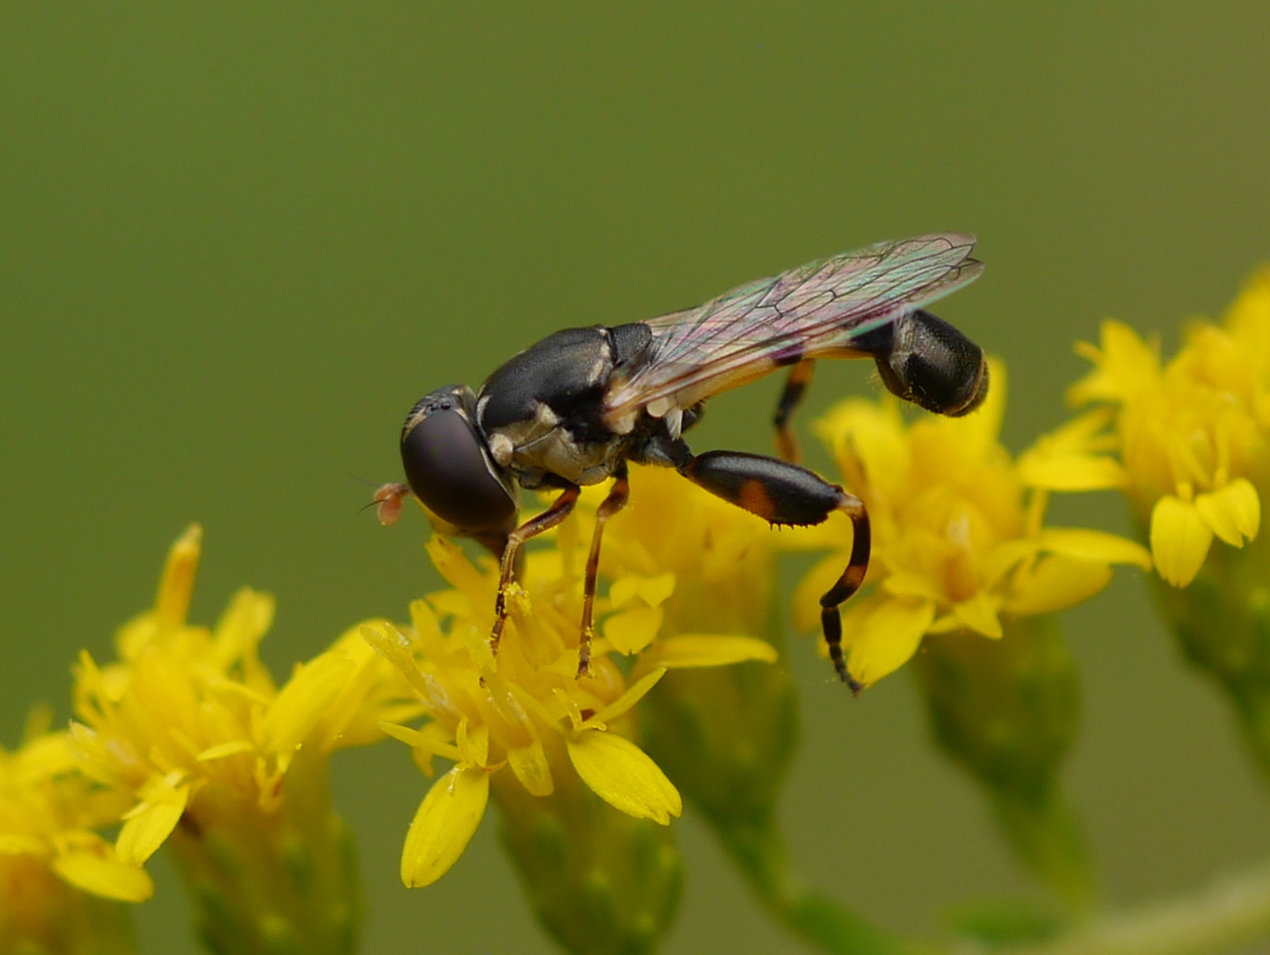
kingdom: Animalia
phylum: Arthropoda
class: Insecta
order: Diptera
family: Syrphidae
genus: Syritta
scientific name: Syritta pipiens
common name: Hover fly
